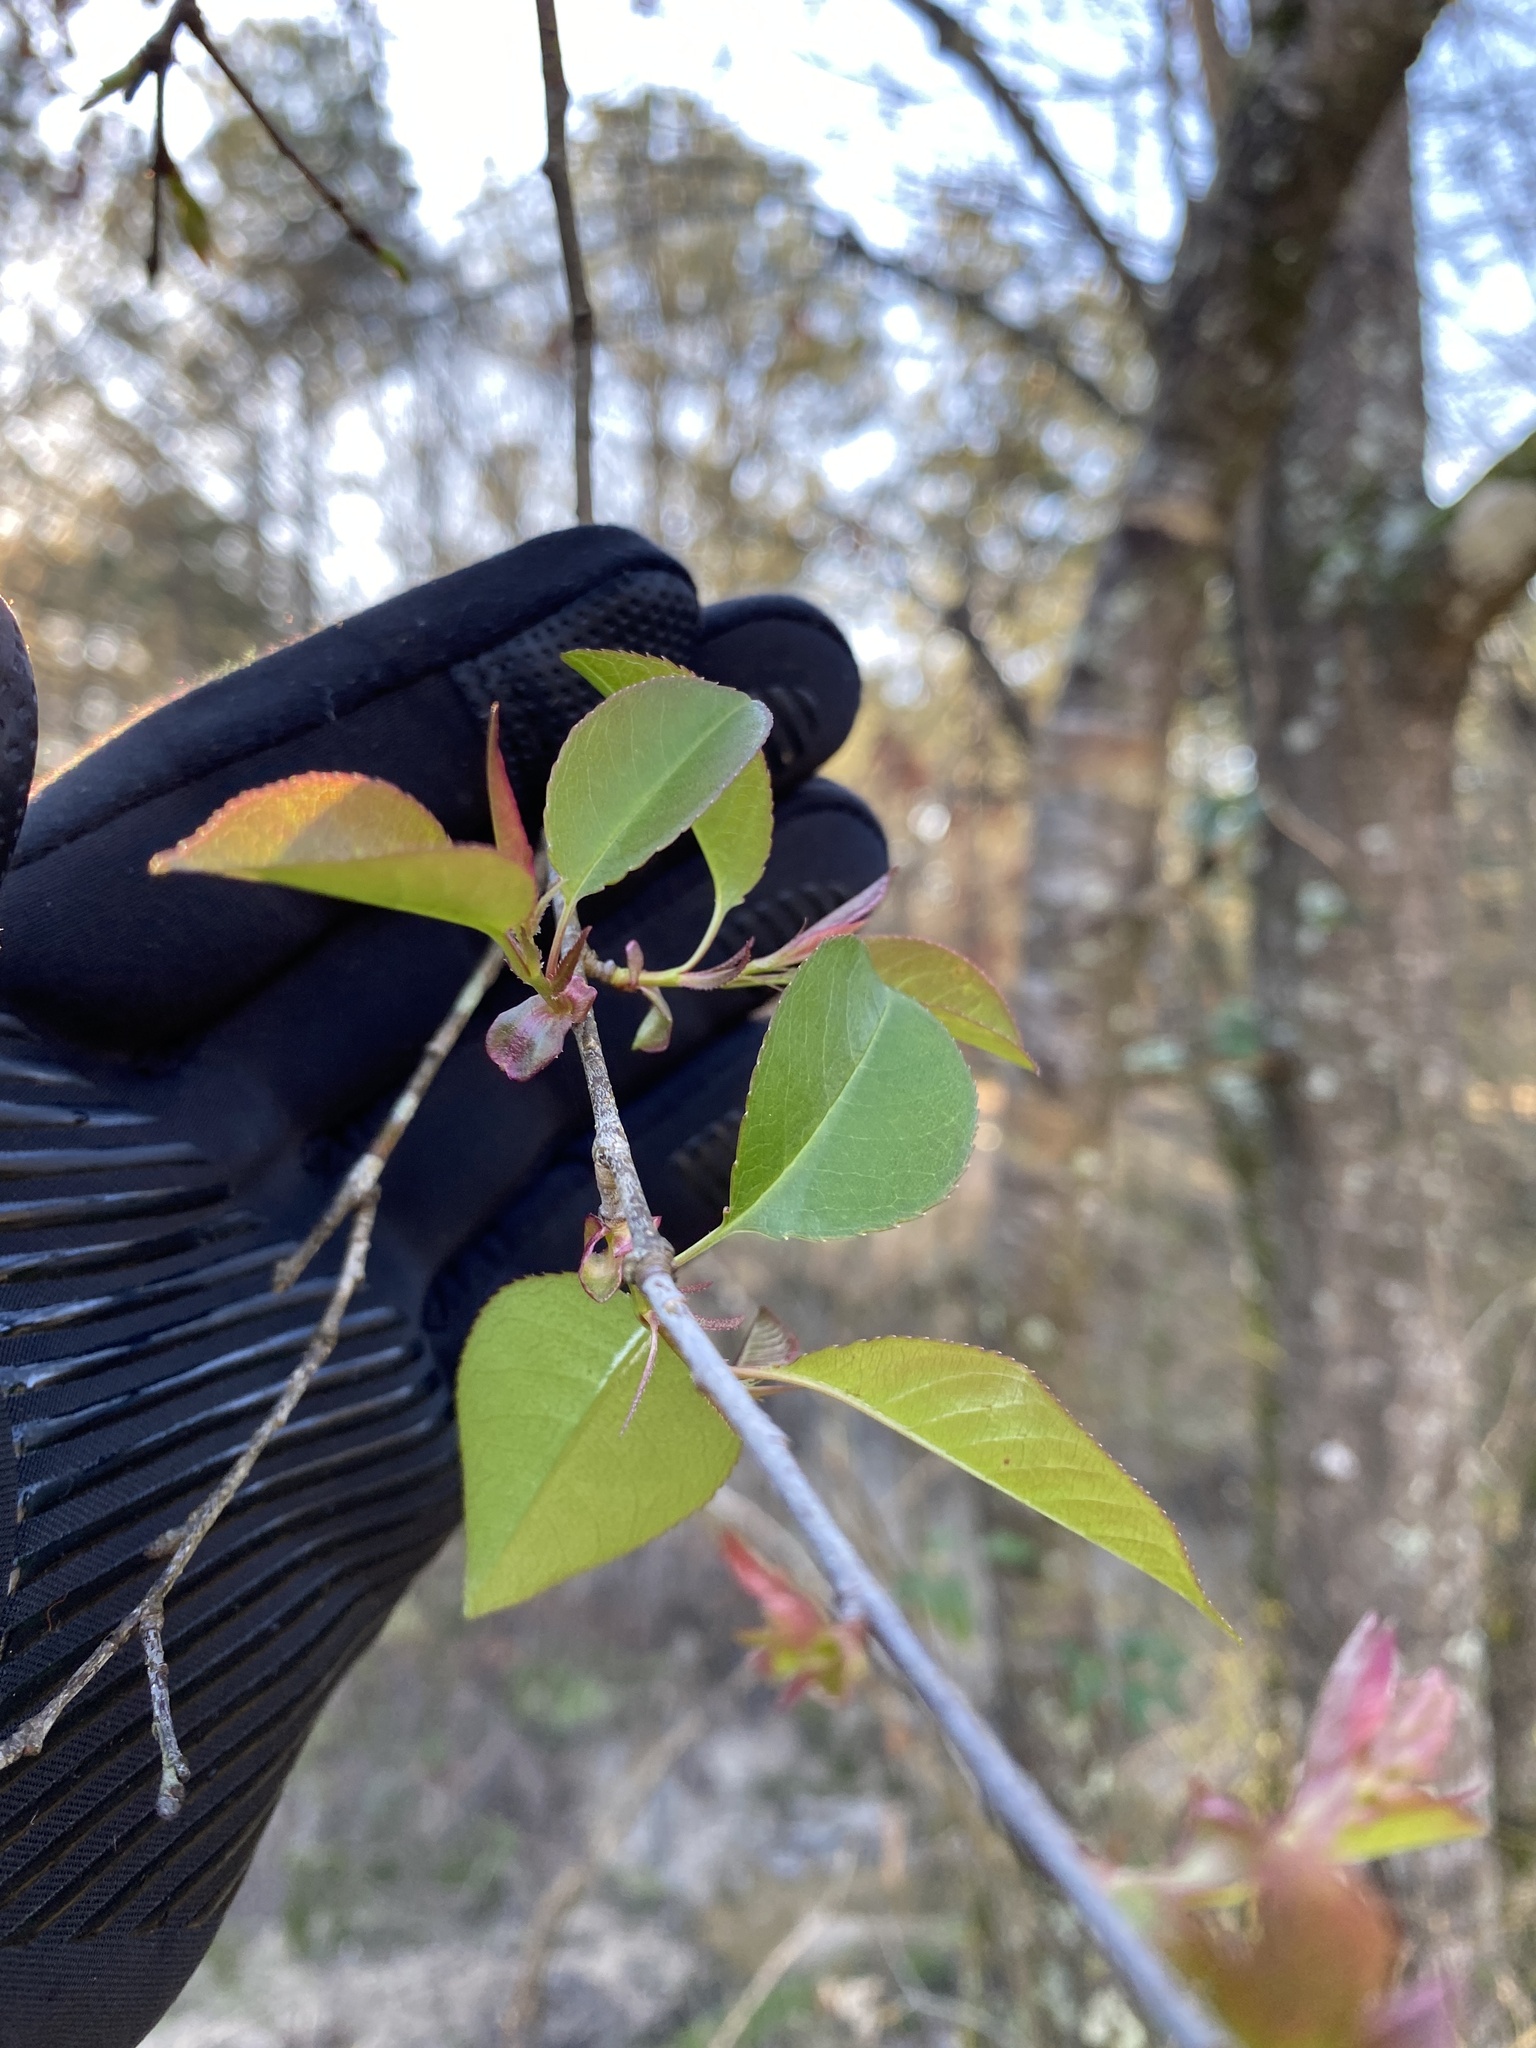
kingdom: Plantae
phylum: Tracheophyta
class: Magnoliopsida
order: Rosales
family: Rosaceae
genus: Prunus
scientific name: Prunus serotina
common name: Black cherry
